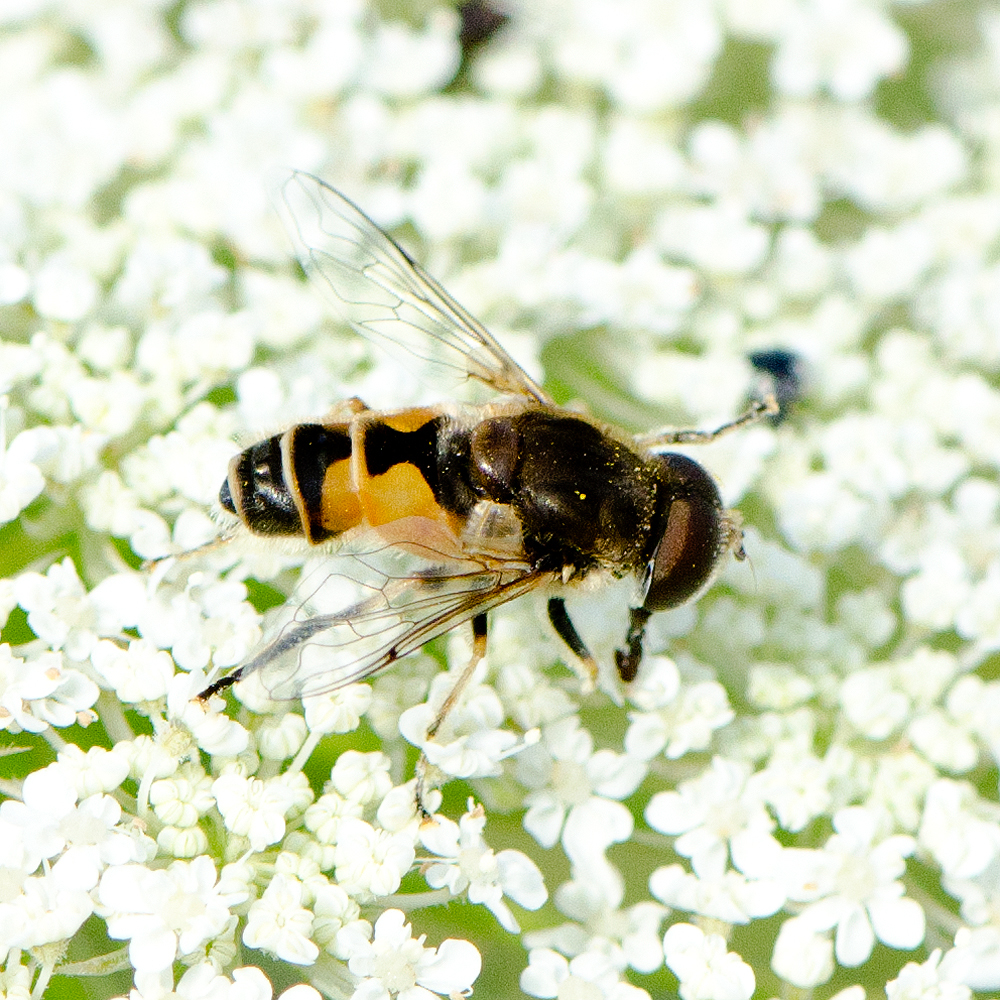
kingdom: Animalia
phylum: Arthropoda
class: Insecta
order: Diptera
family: Syrphidae
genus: Eristalis
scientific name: Eristalis arbustorum
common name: Hover fly
